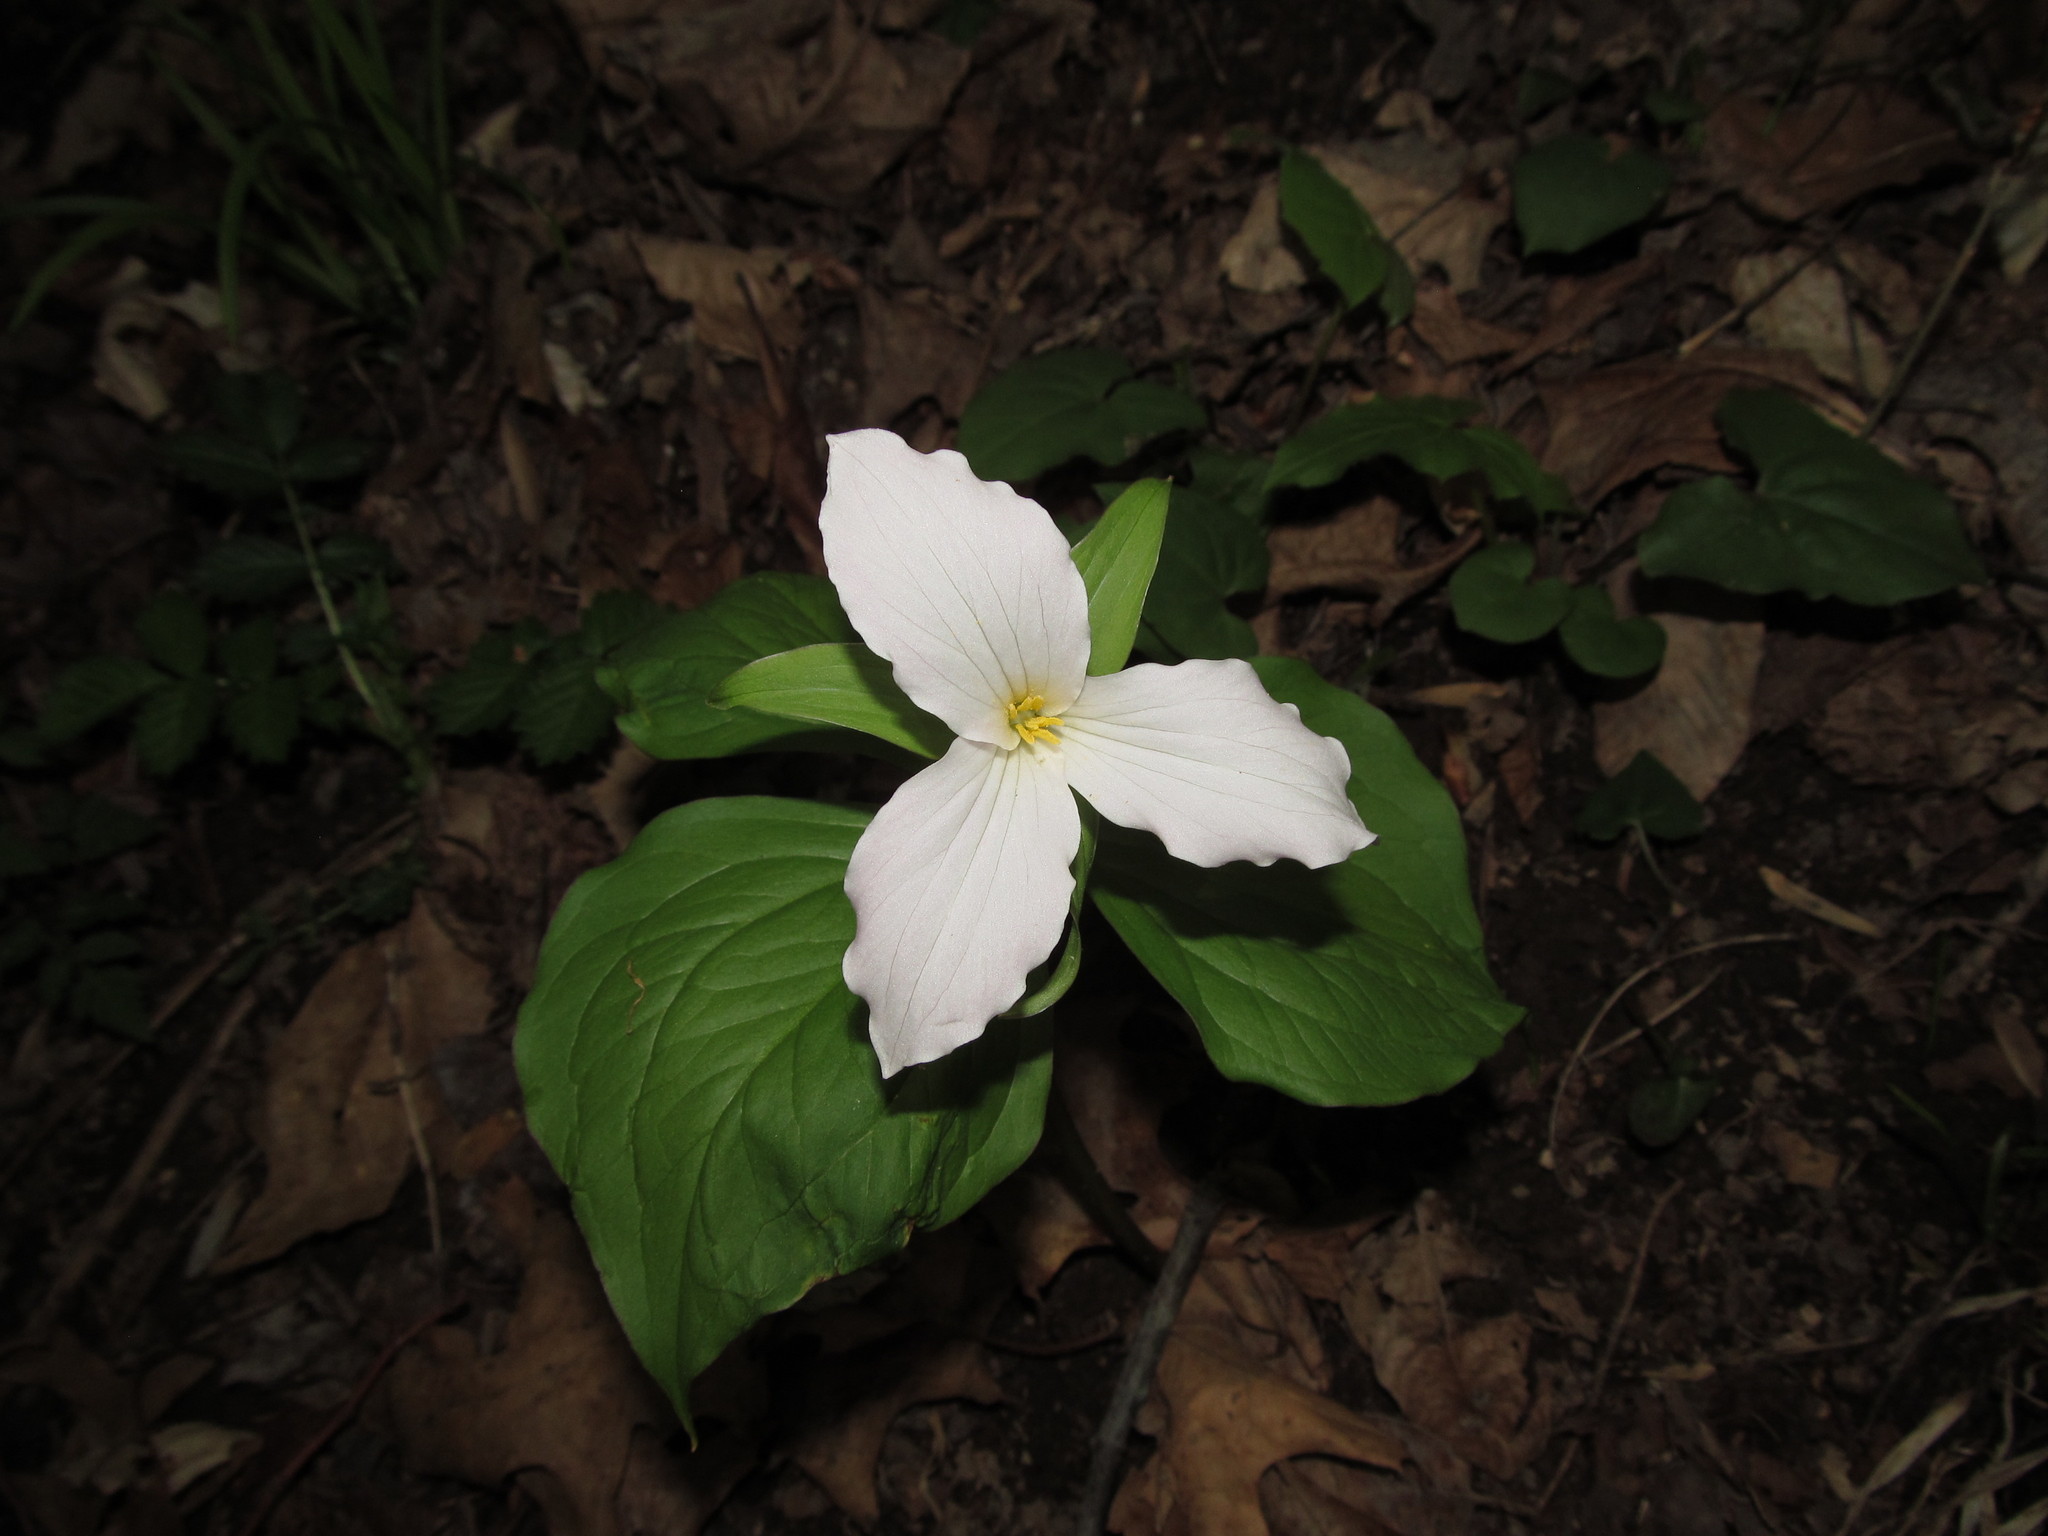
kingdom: Plantae
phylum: Tracheophyta
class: Liliopsida
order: Liliales
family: Melanthiaceae
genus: Trillium
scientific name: Trillium grandiflorum
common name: Great white trillium
